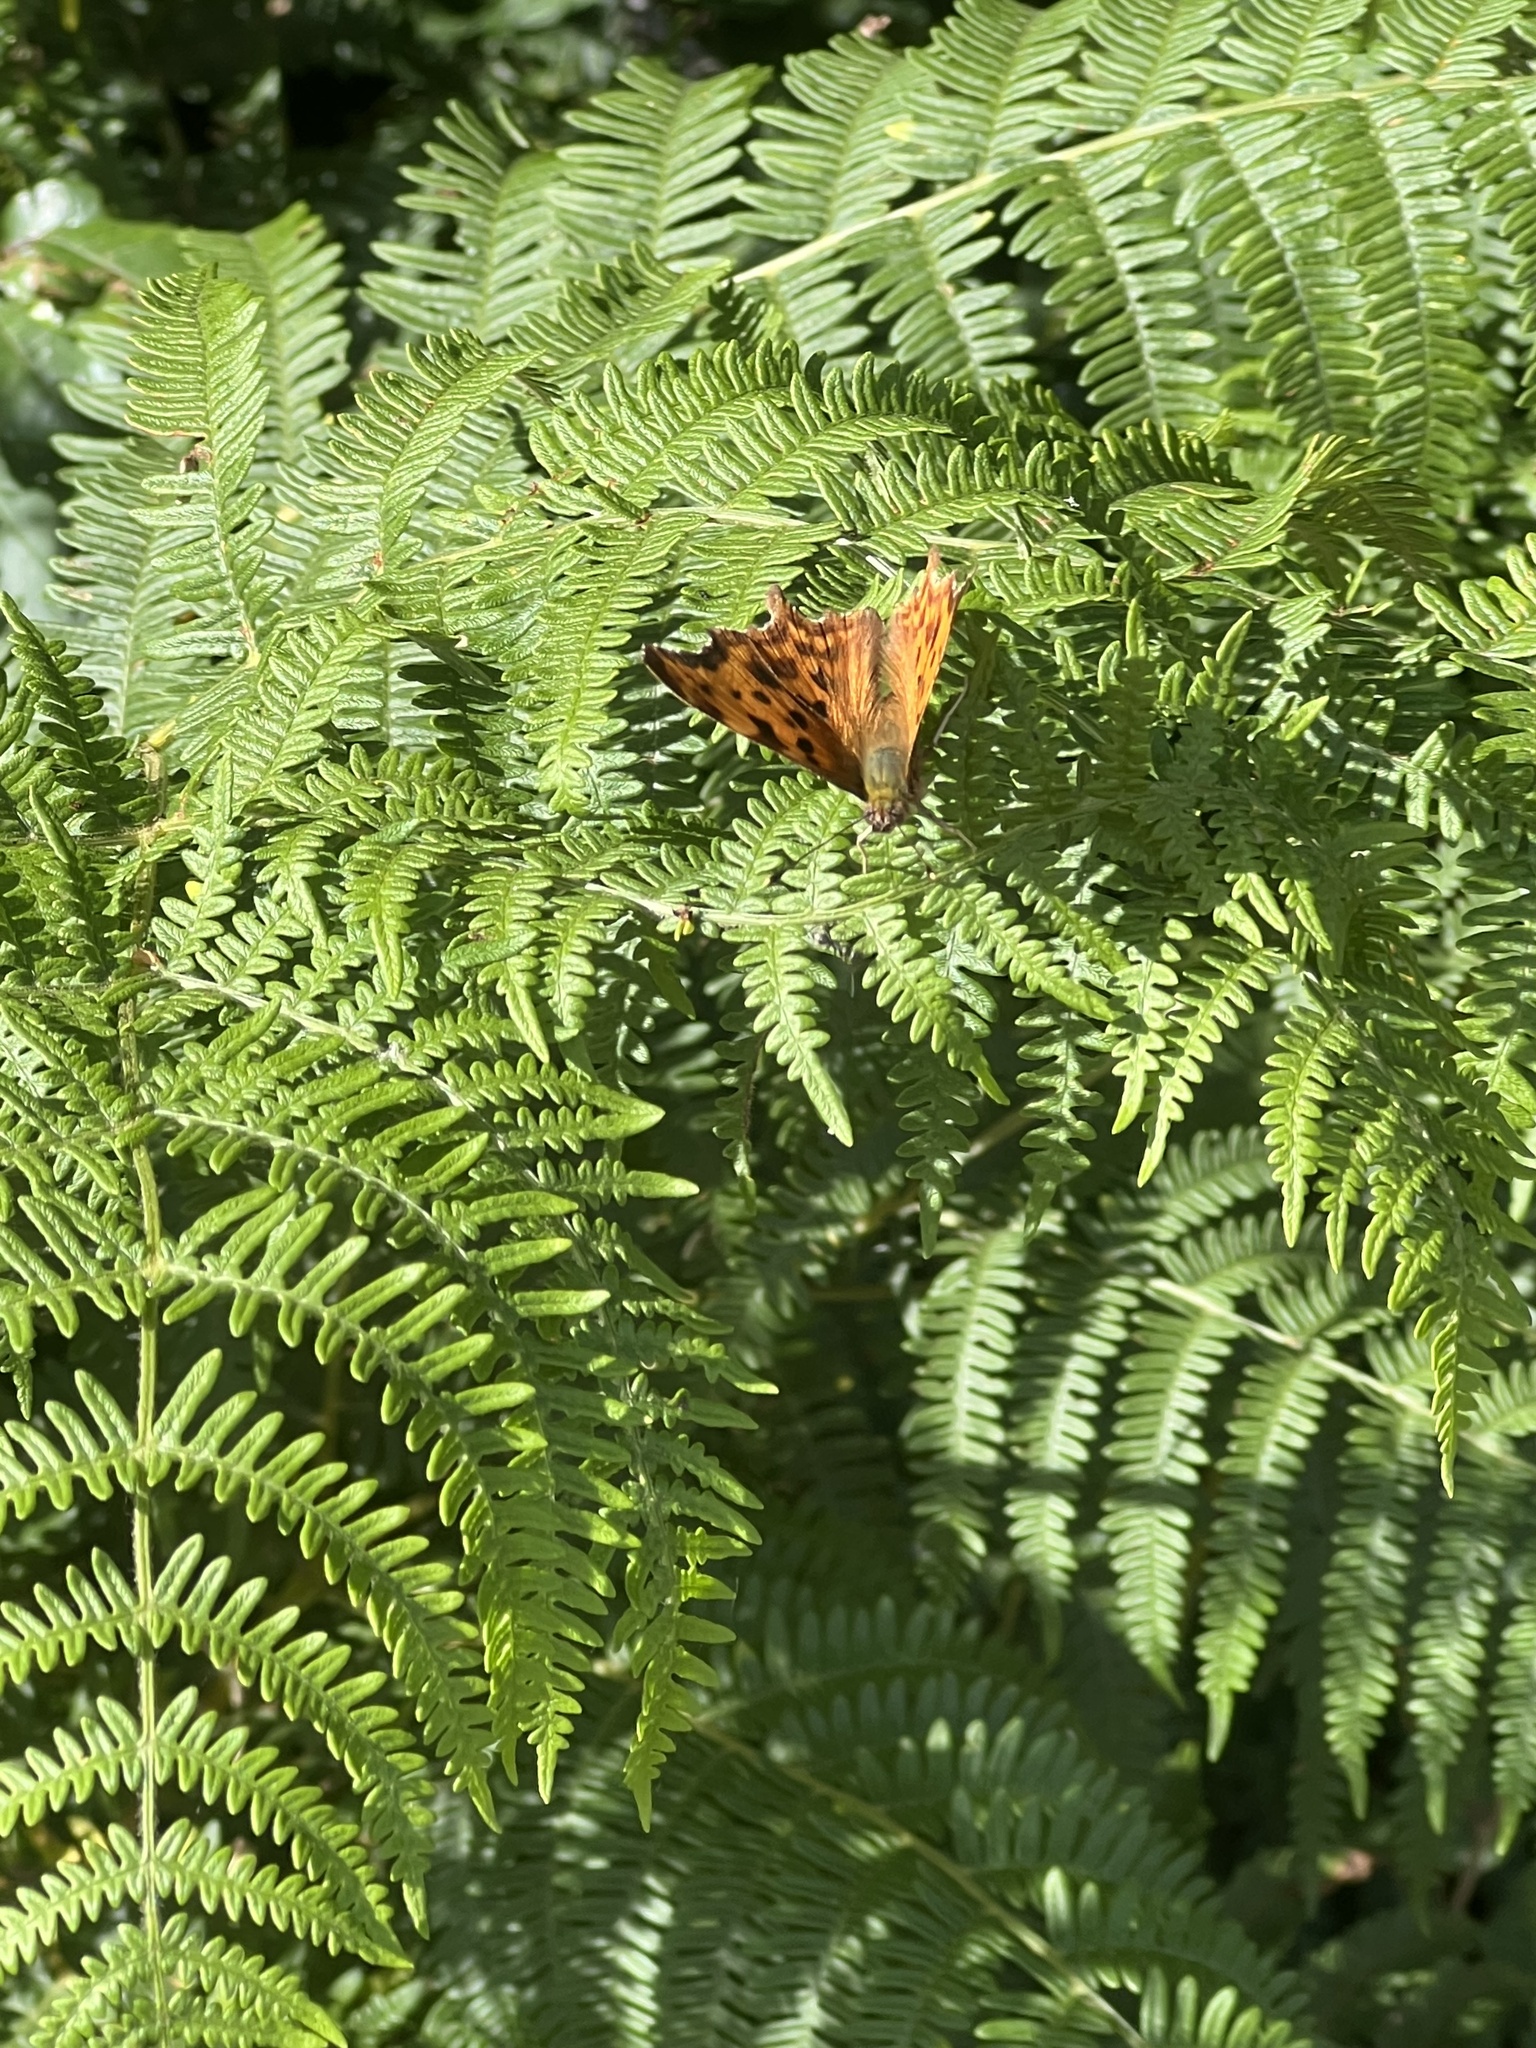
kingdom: Animalia
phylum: Arthropoda
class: Insecta
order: Lepidoptera
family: Nymphalidae
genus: Polygonia
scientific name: Polygonia c-album
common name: Comma
